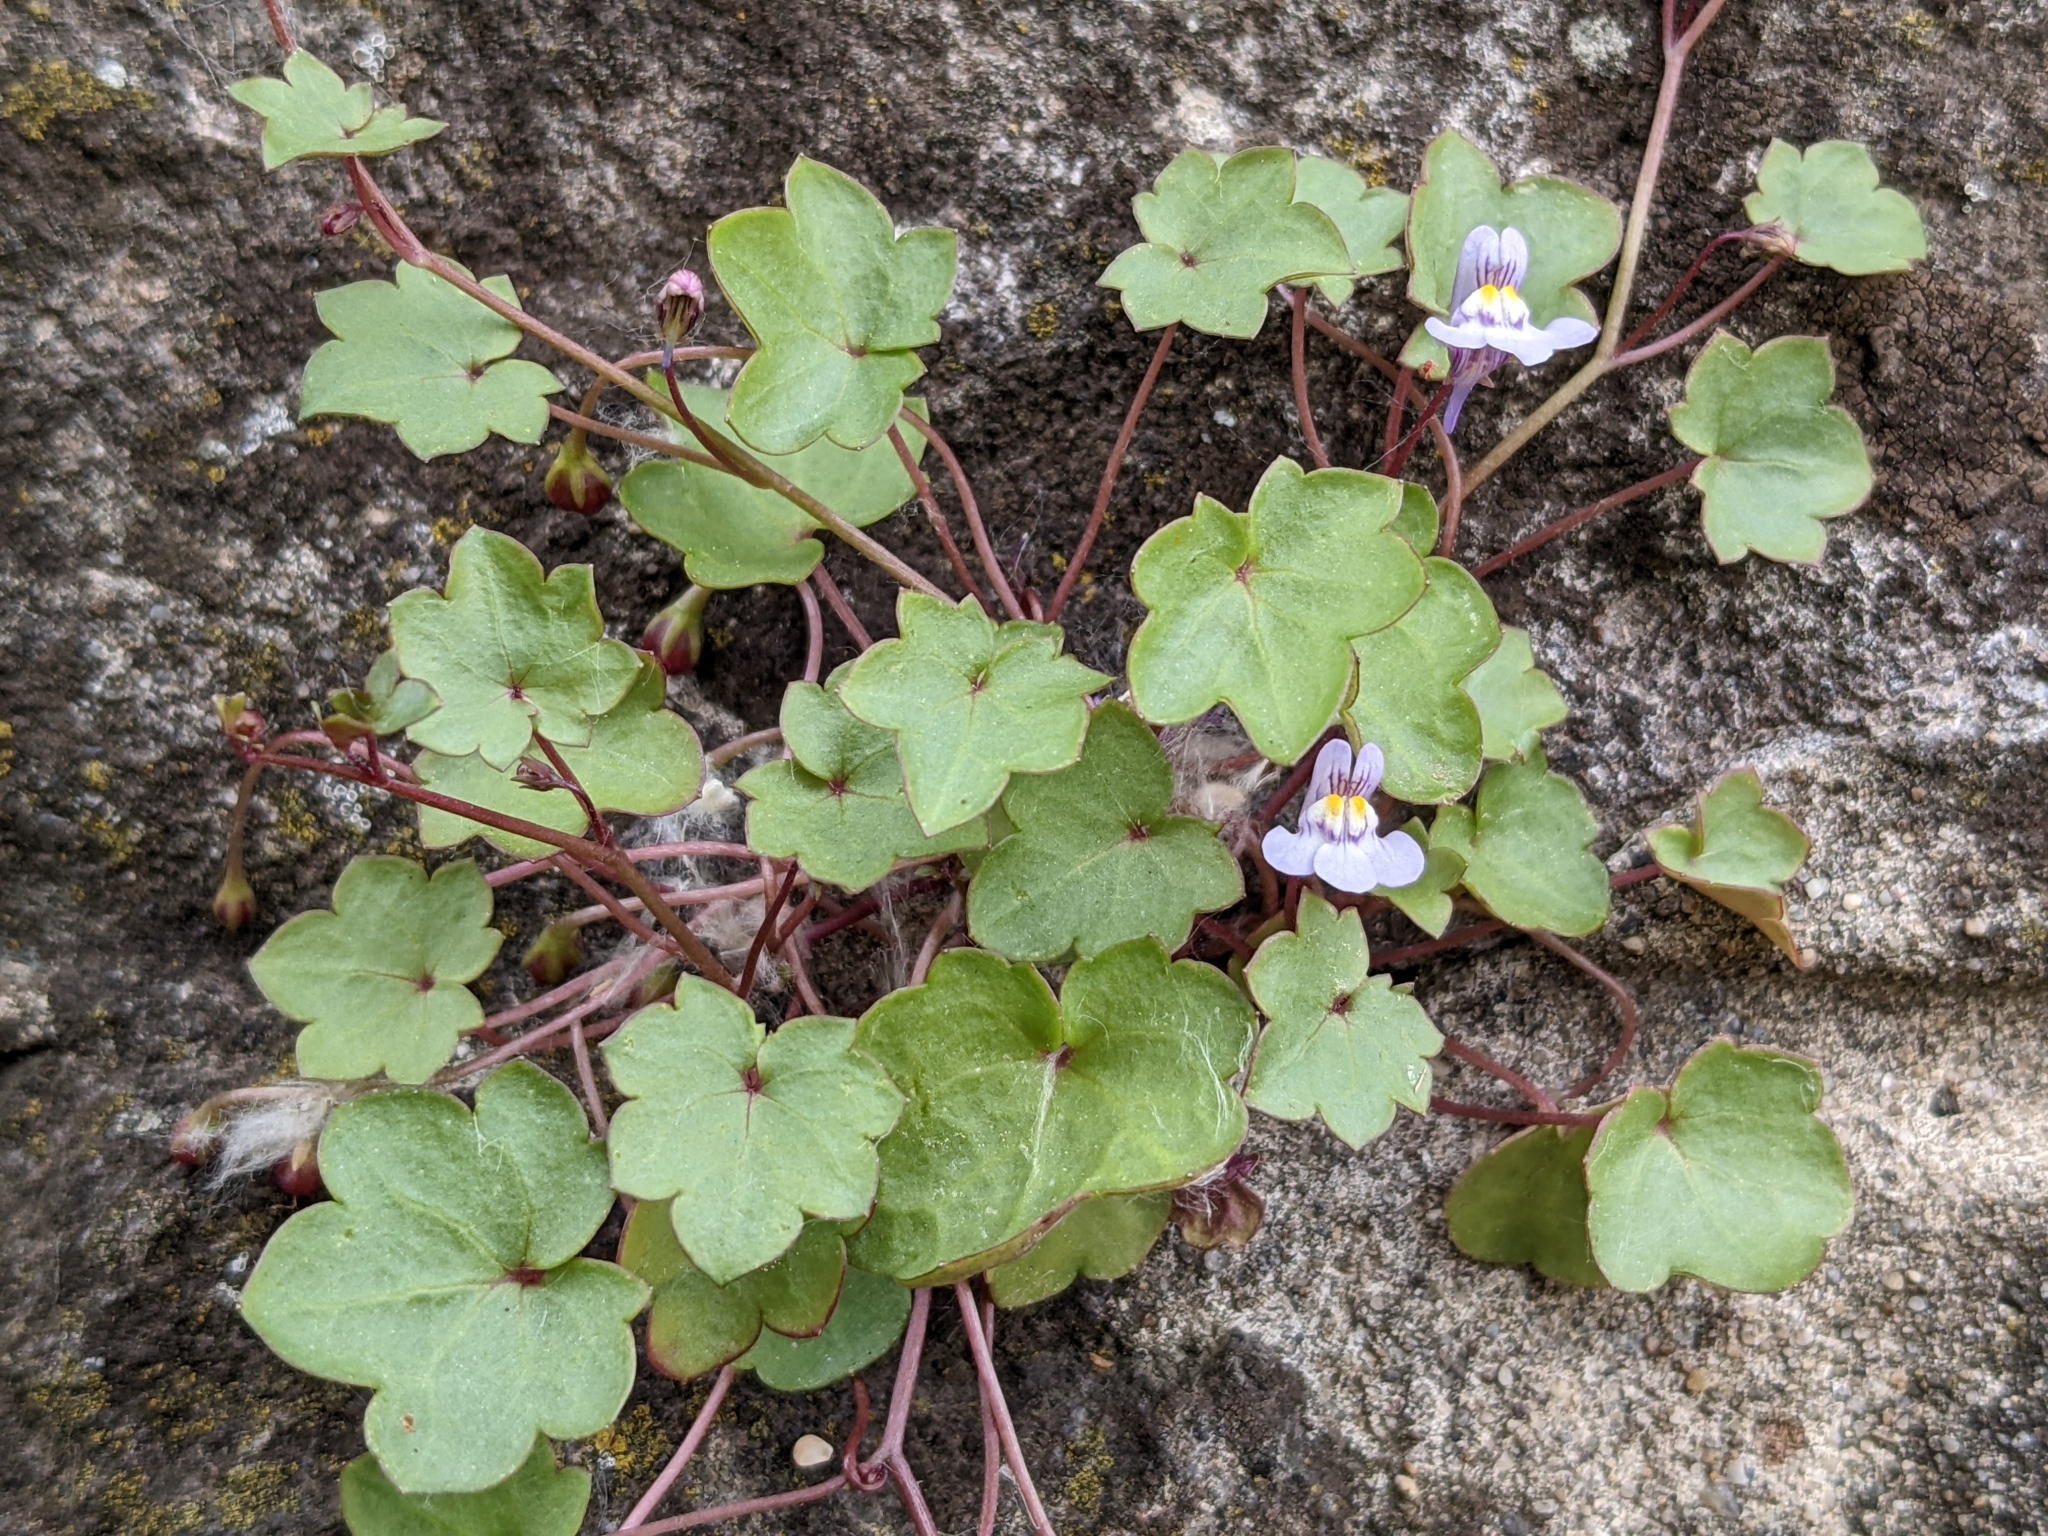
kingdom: Plantae
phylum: Tracheophyta
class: Magnoliopsida
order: Lamiales
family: Plantaginaceae
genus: Cymbalaria
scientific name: Cymbalaria muralis
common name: Ivy-leaved toadflax
